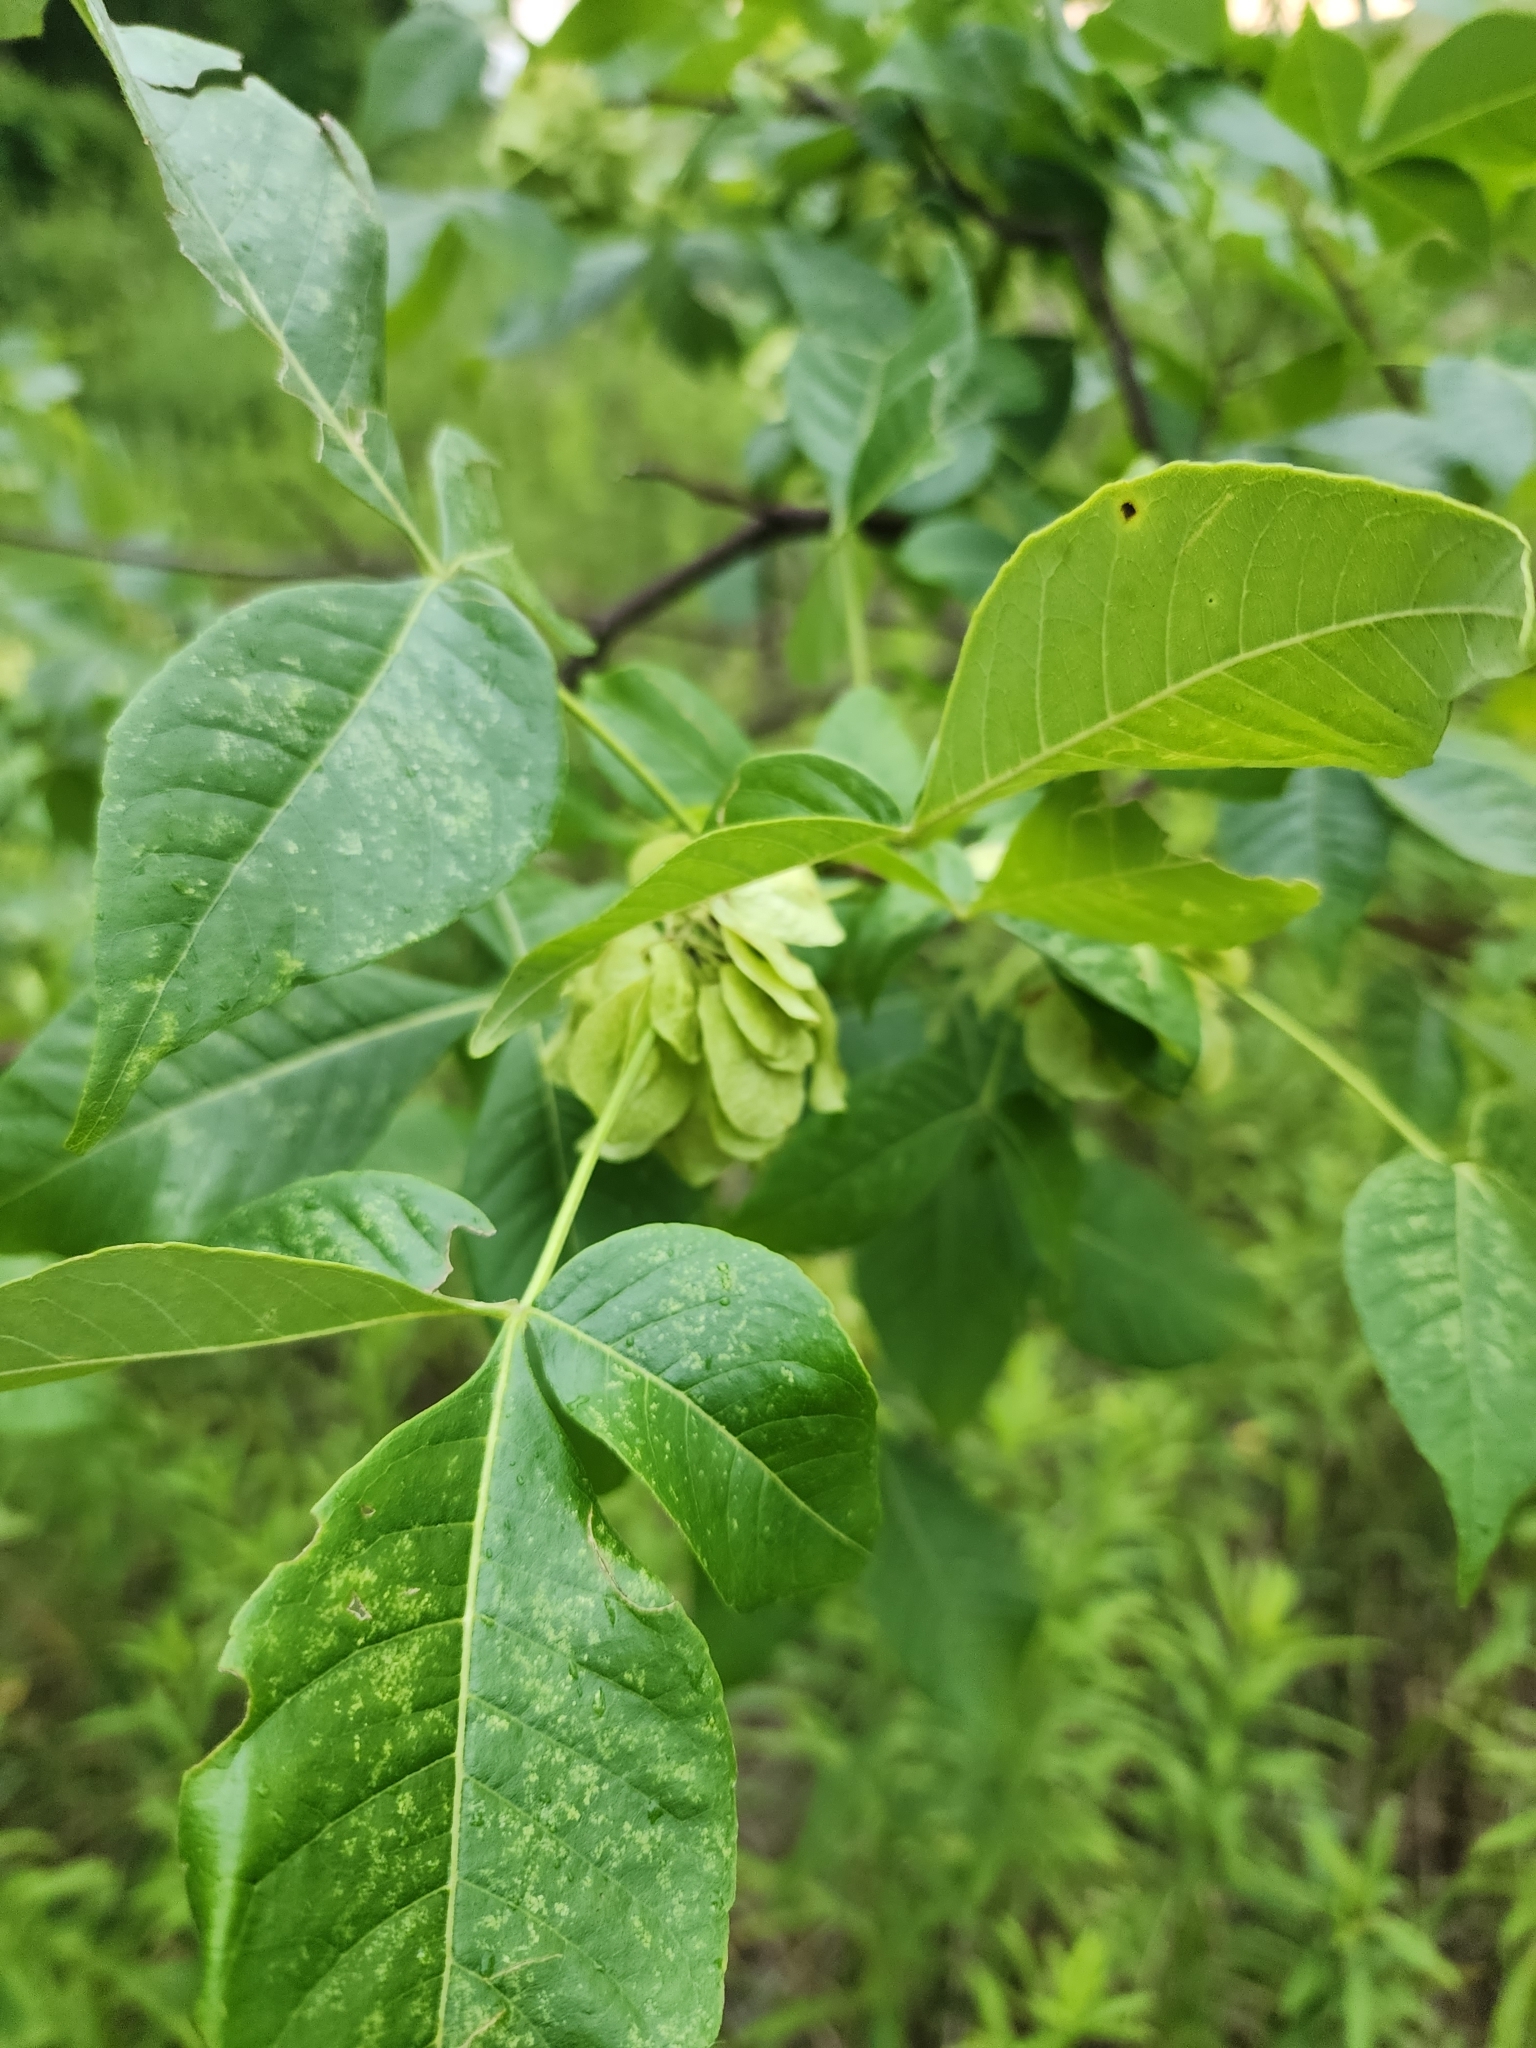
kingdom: Plantae
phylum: Tracheophyta
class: Magnoliopsida
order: Sapindales
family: Rutaceae
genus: Ptelea
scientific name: Ptelea trifoliata
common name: Common hop-tree
